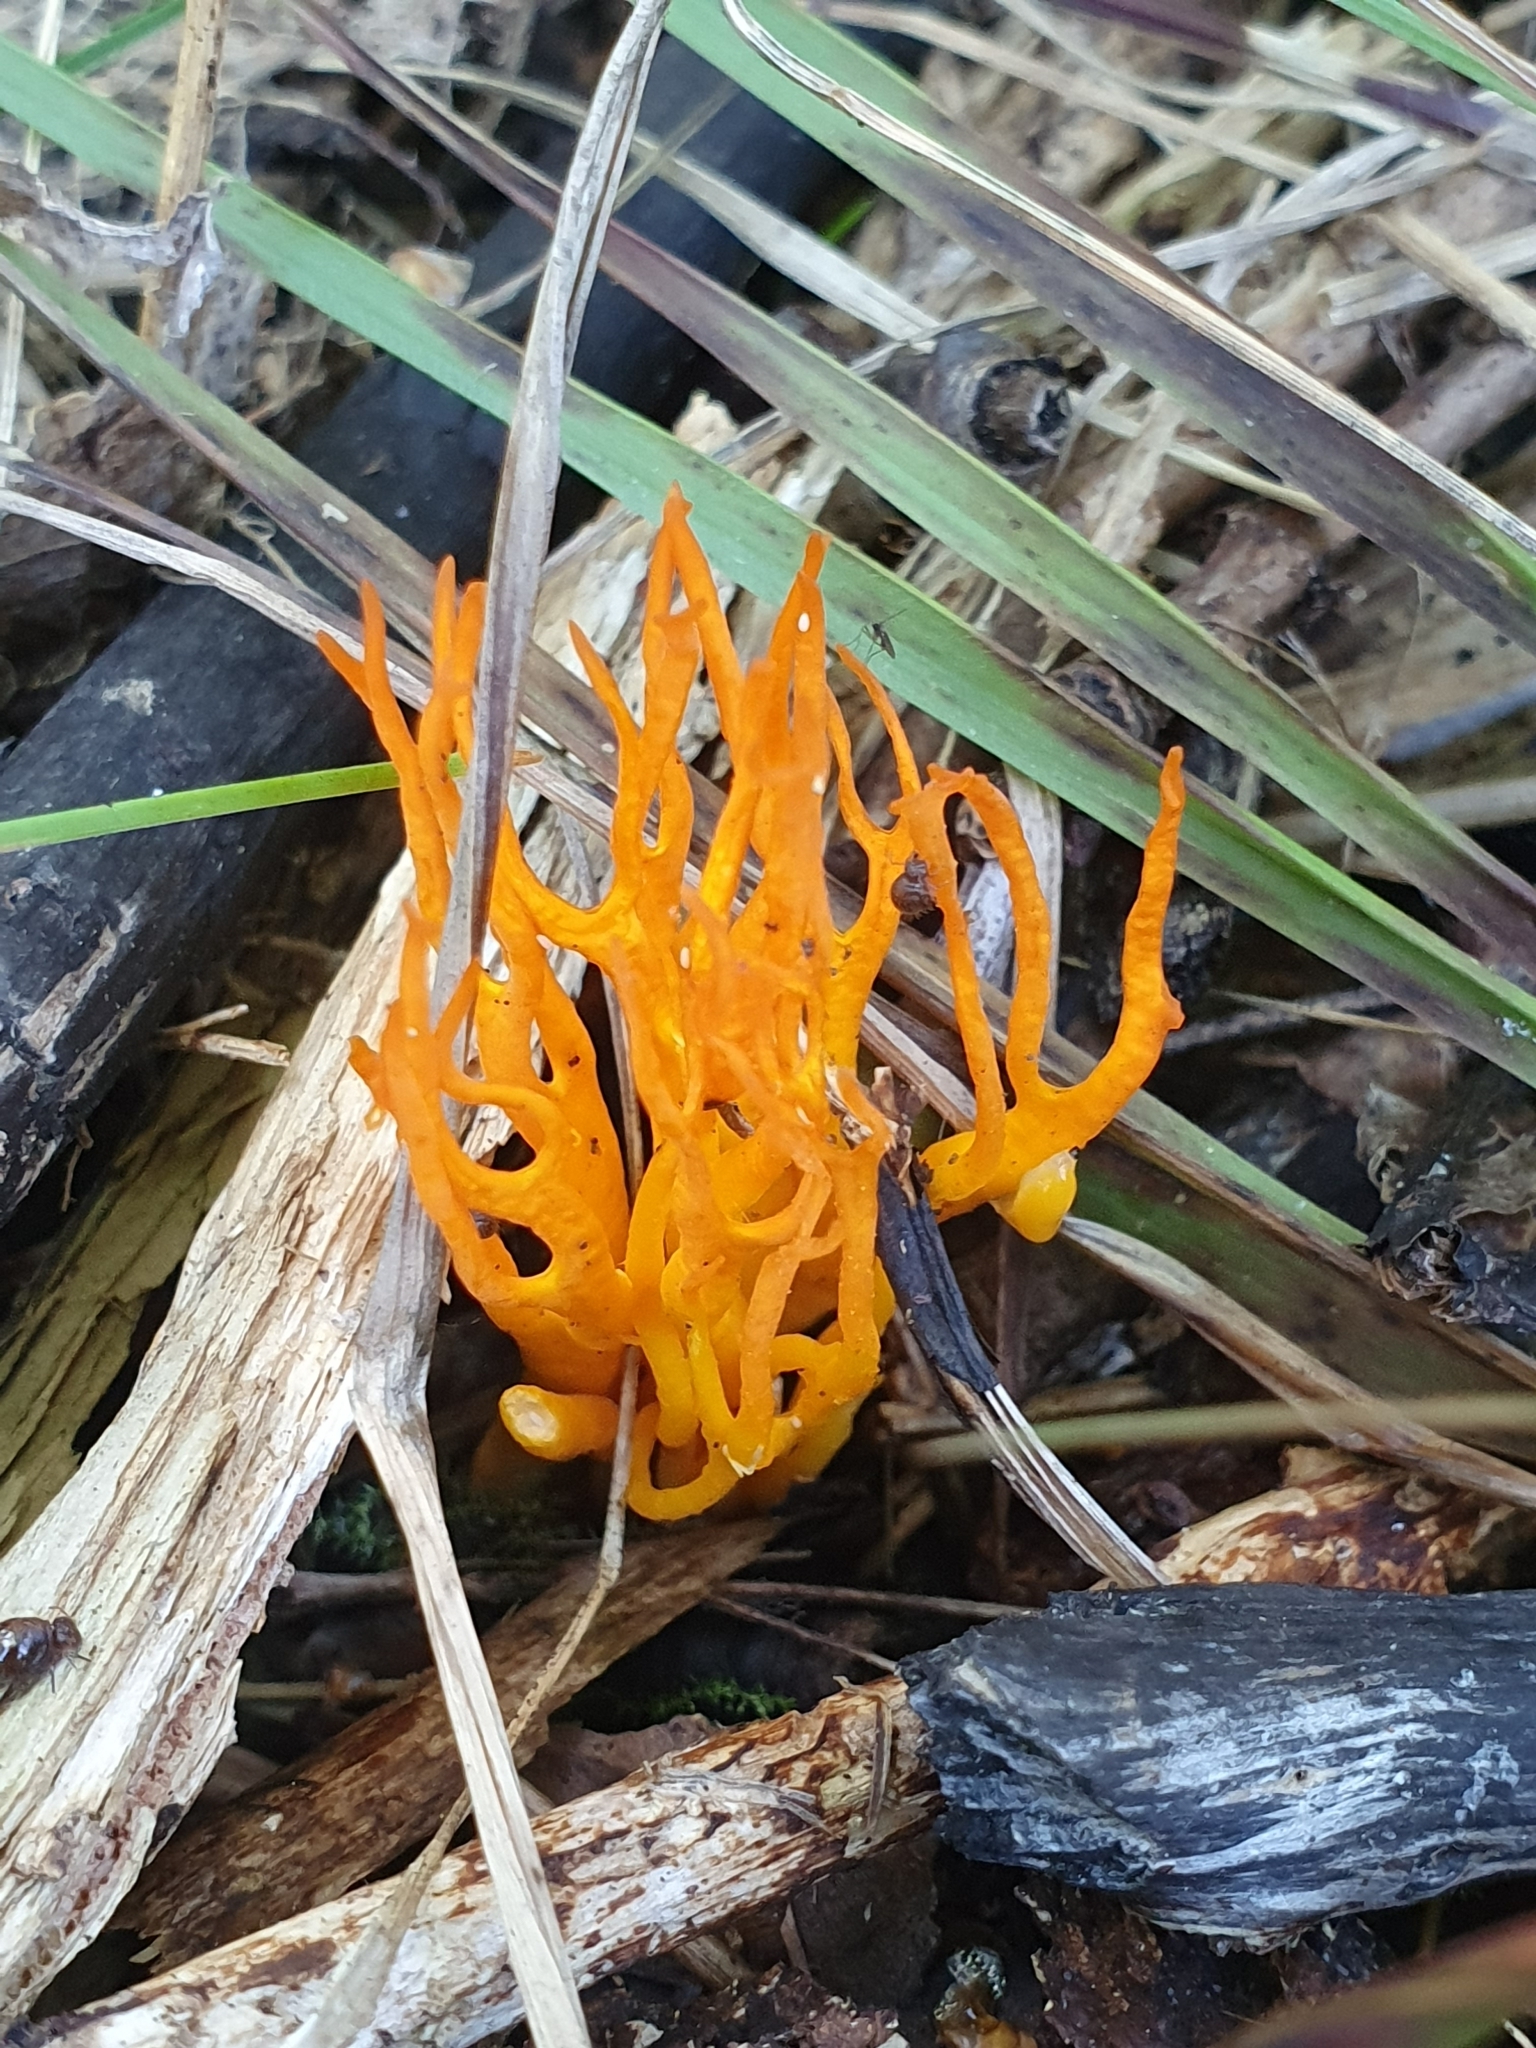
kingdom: Fungi
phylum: Basidiomycota
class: Dacrymycetes
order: Dacrymycetales
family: Dacrymycetaceae
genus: Calocera
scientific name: Calocera viscosa
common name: Yellow stagshorn
